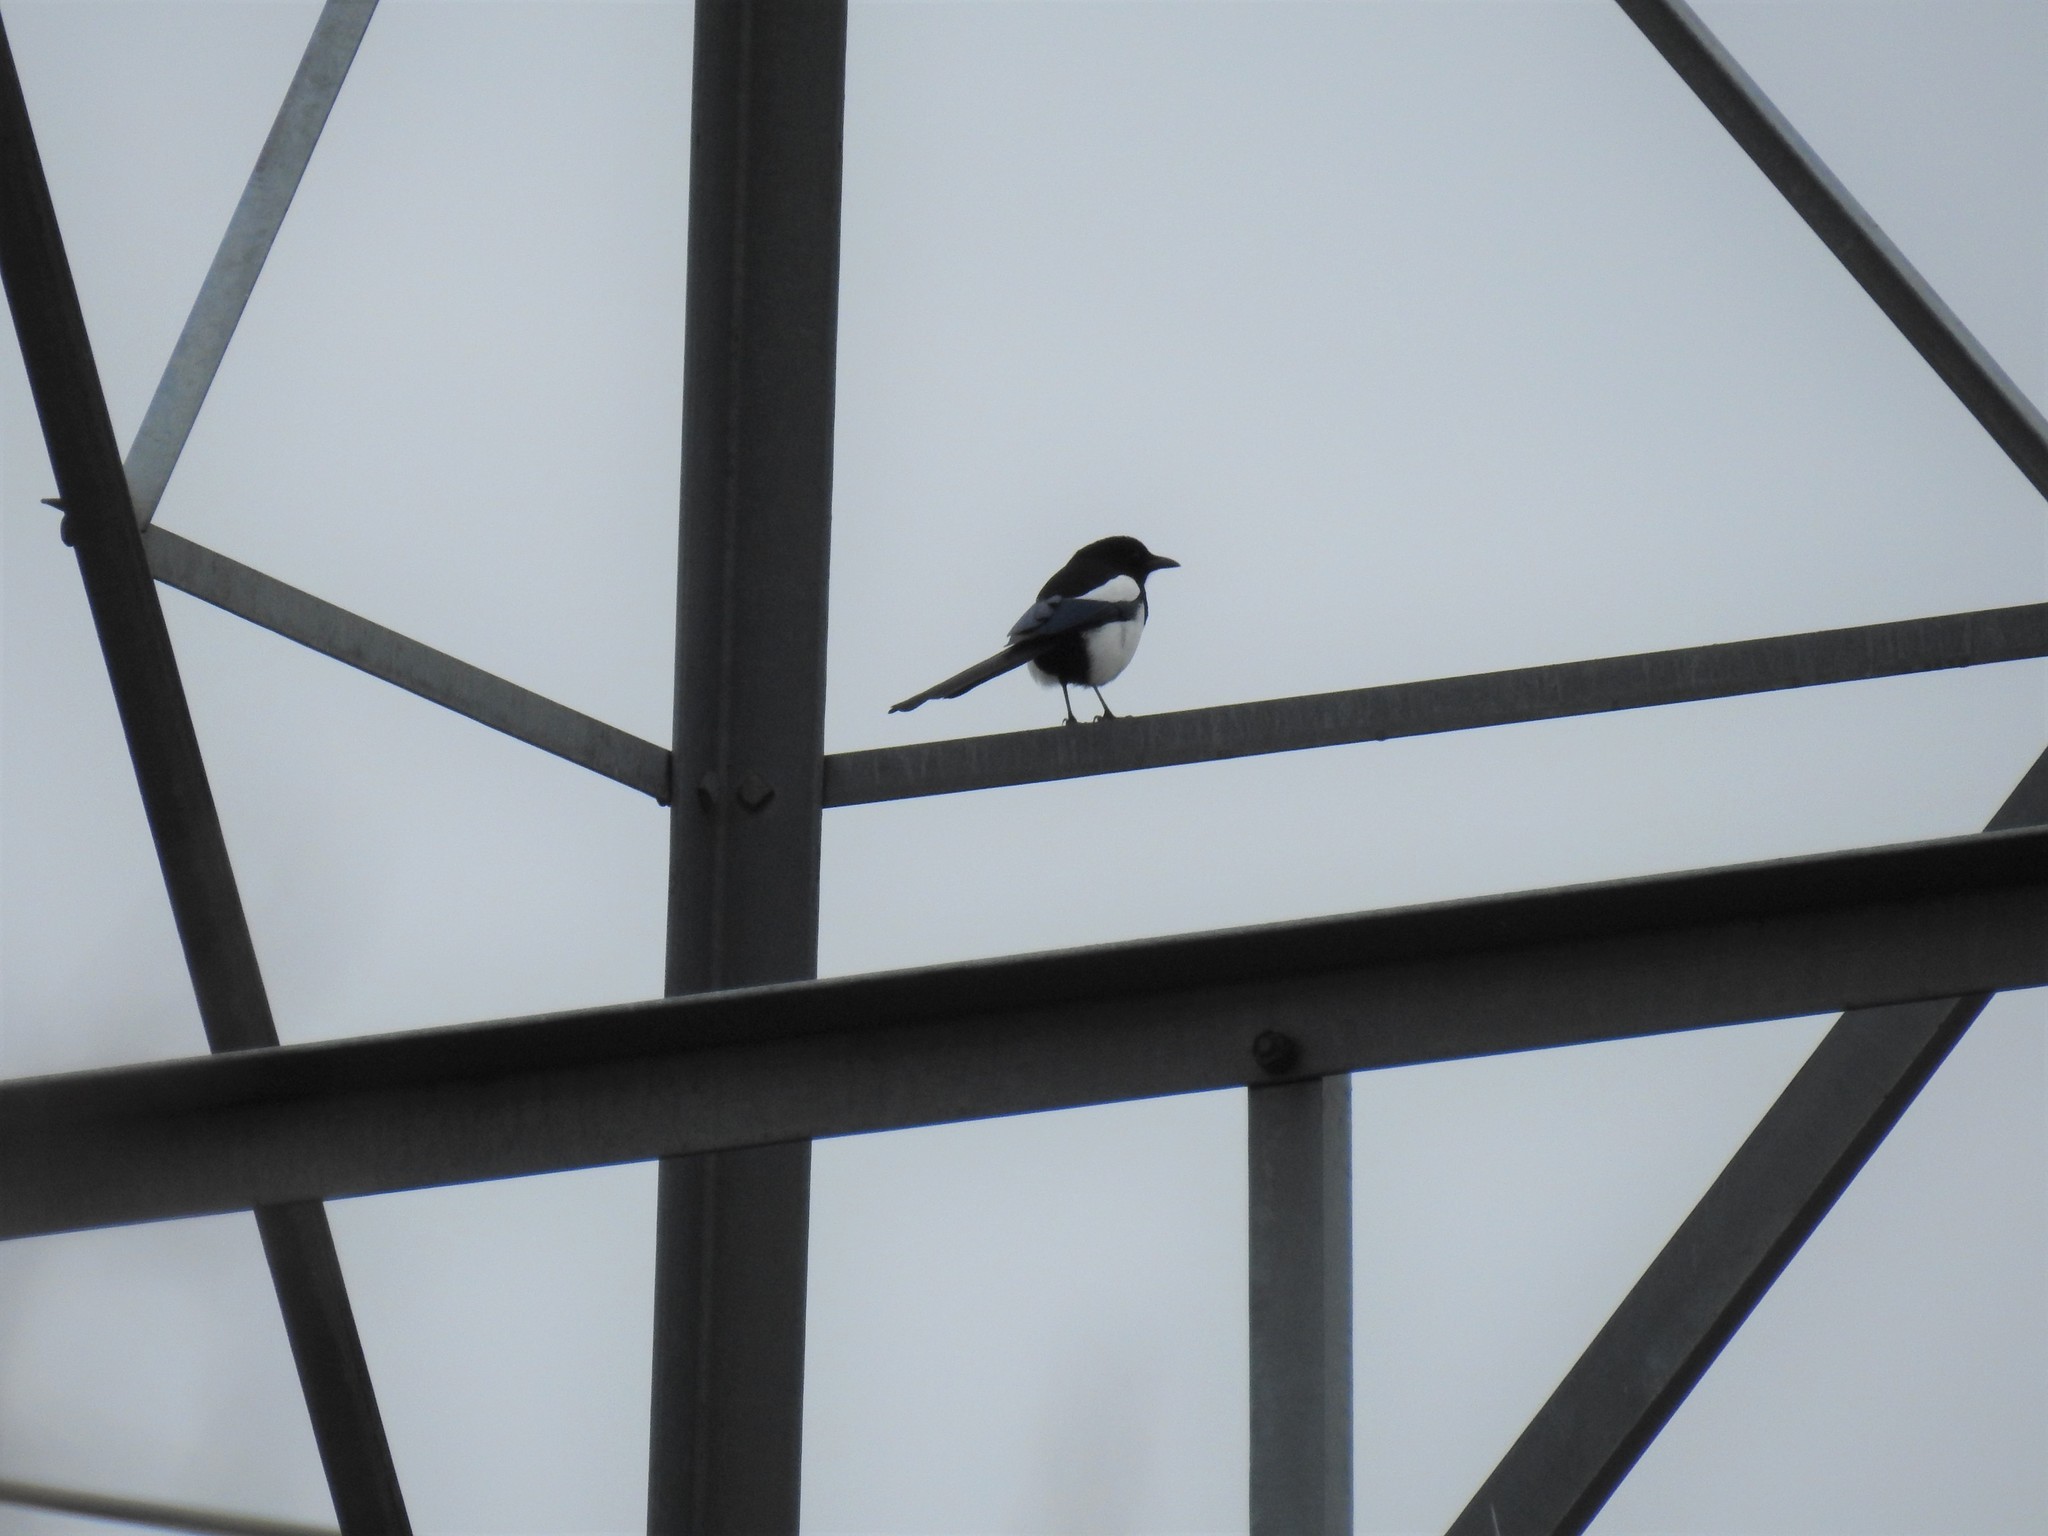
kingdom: Animalia
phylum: Chordata
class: Aves
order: Passeriformes
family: Corvidae
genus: Pica
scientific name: Pica hudsonia
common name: Black-billed magpie
